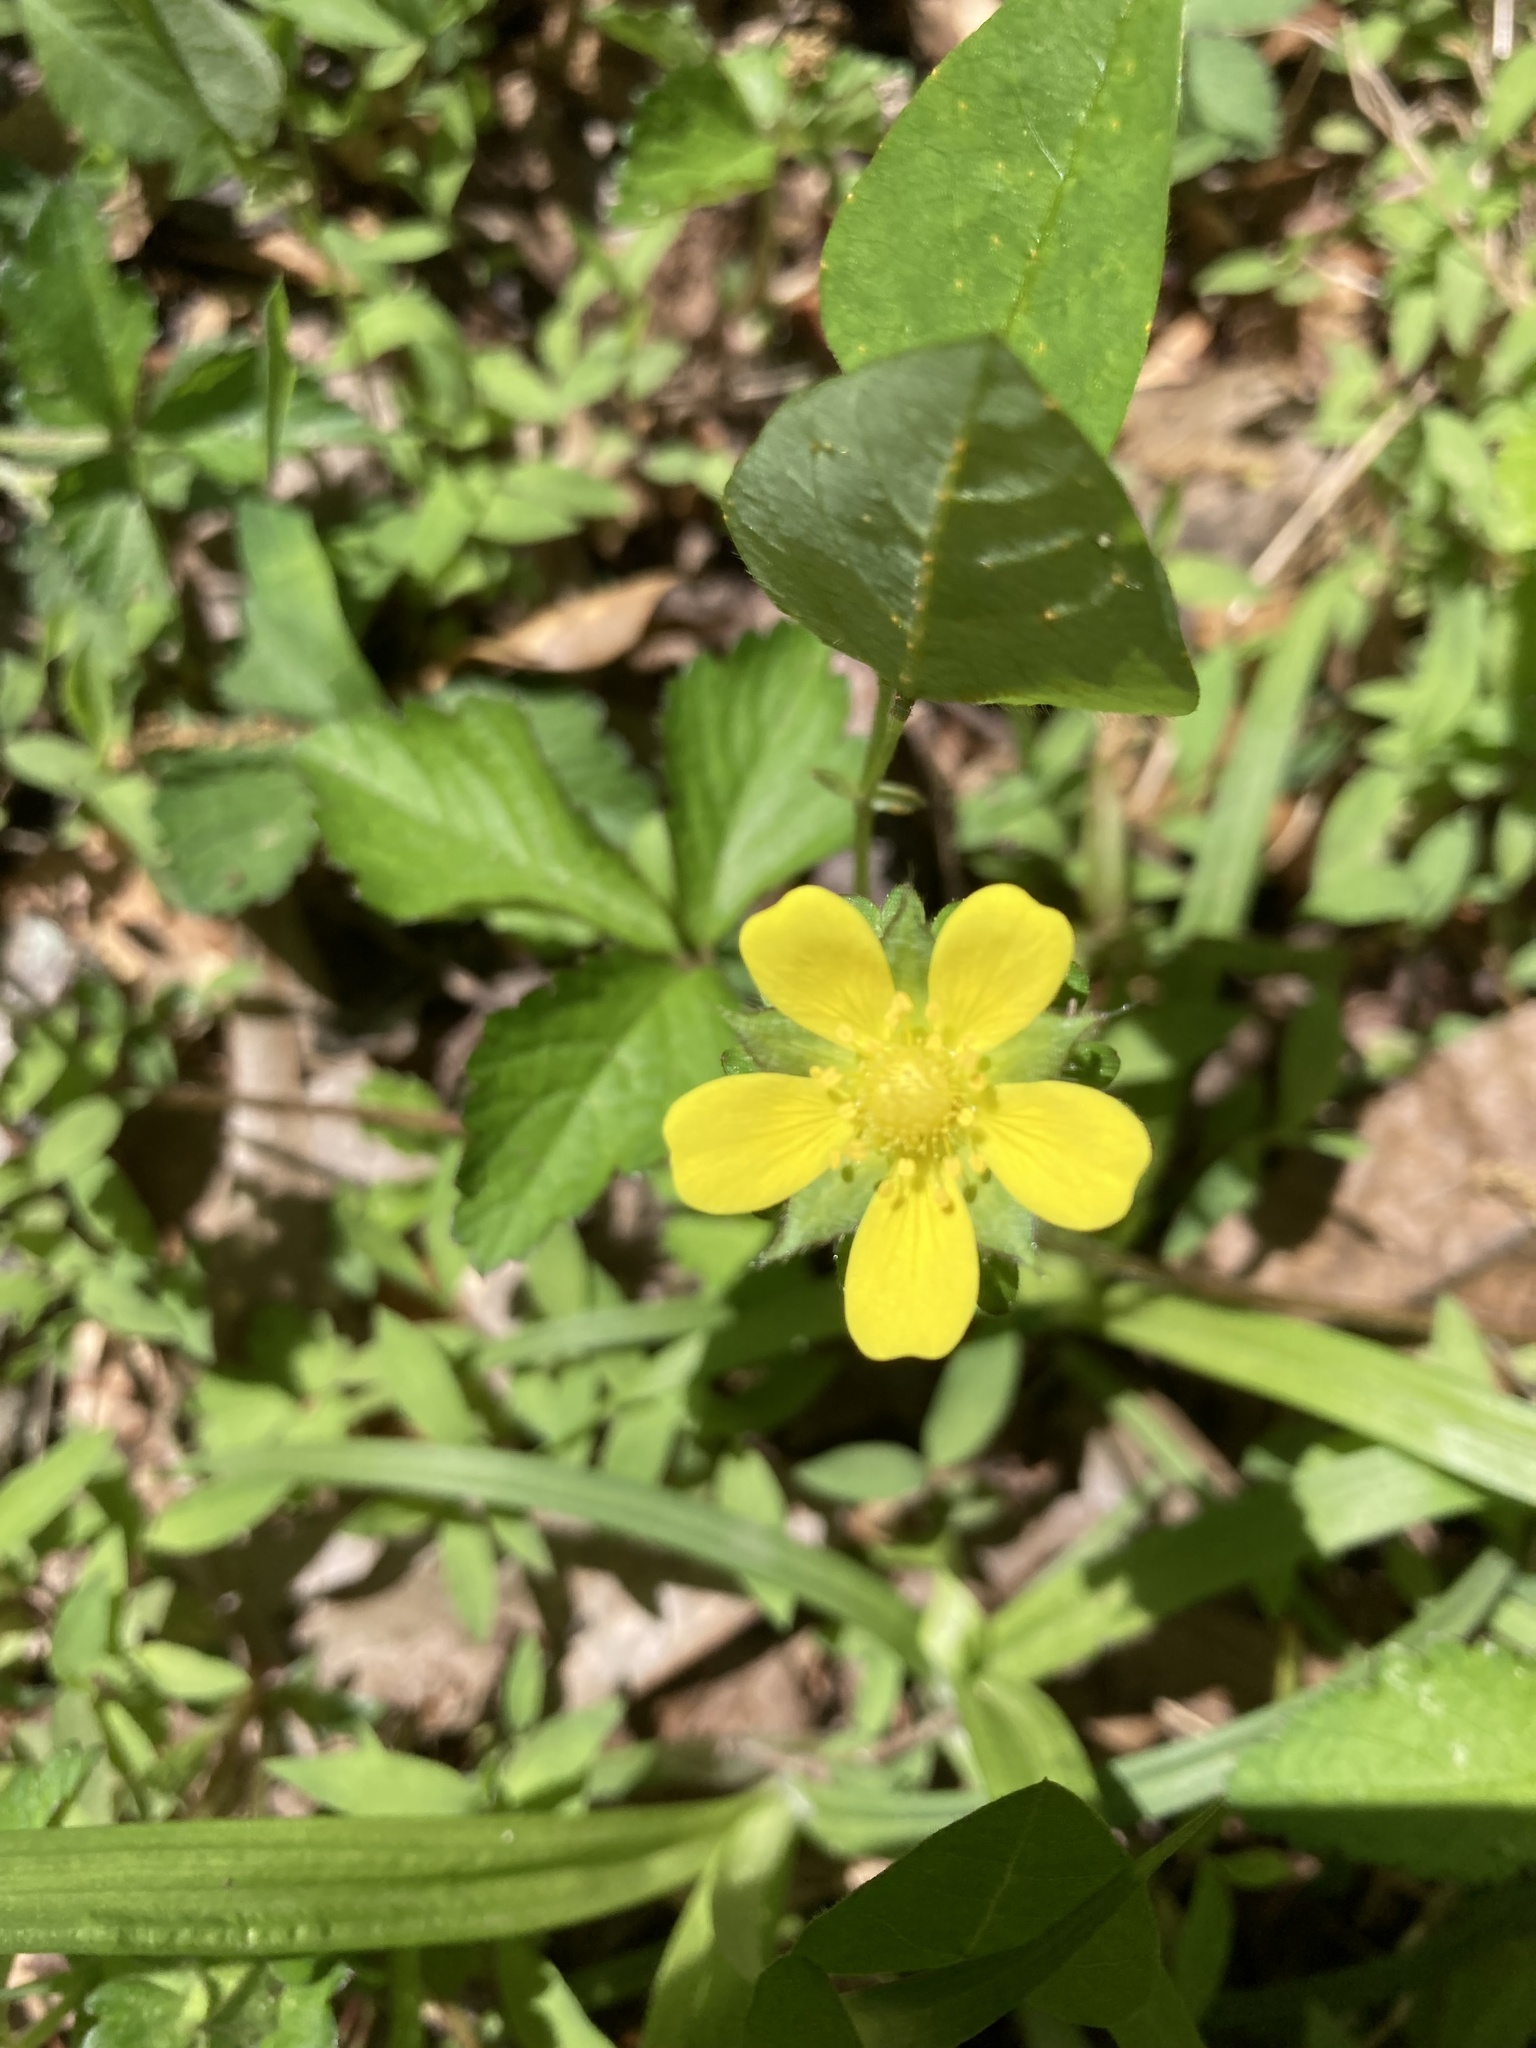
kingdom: Plantae
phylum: Tracheophyta
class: Magnoliopsida
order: Rosales
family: Rosaceae
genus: Potentilla
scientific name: Potentilla indica
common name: Yellow-flowered strawberry
